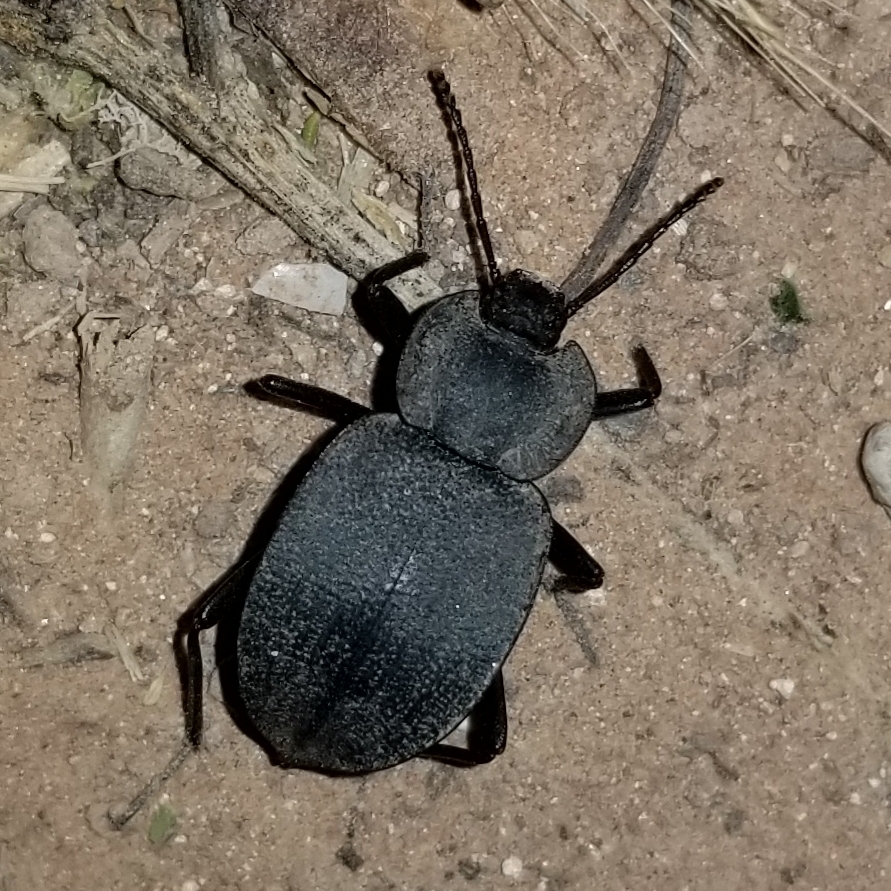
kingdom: Animalia
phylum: Arthropoda
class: Insecta
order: Coleoptera
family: Tenebrionidae
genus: Embaphion
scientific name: Embaphion contusum
